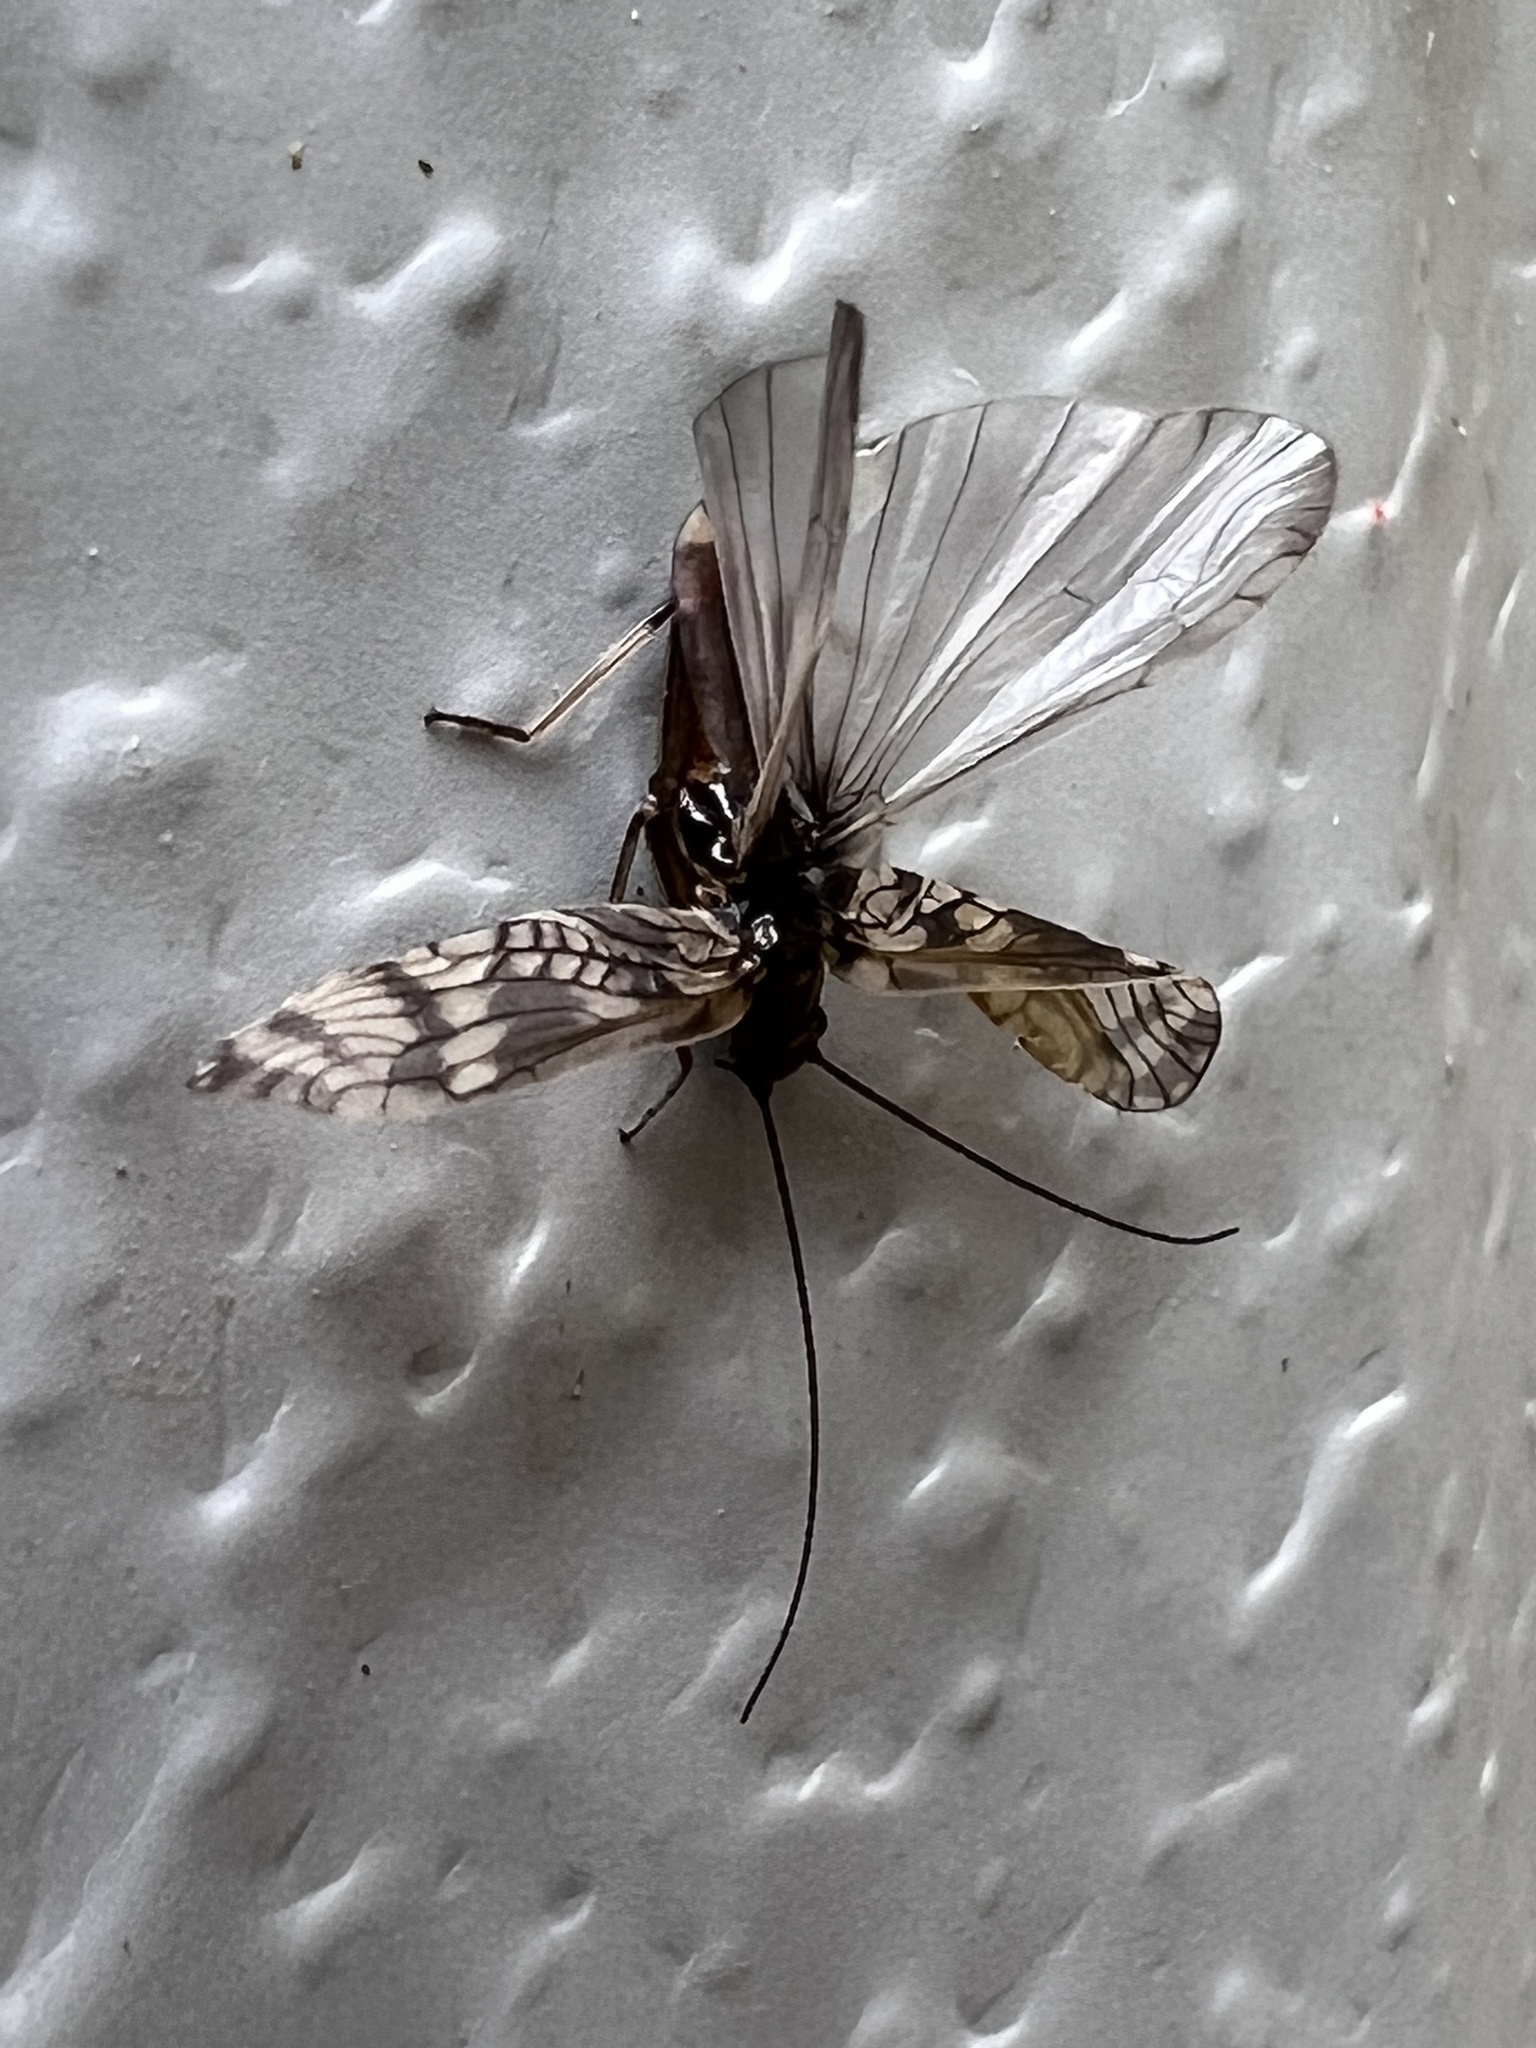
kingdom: Animalia
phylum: Arthropoda
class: Insecta
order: Plecoptera
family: Taeniopterygidae
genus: Doddsia
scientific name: Doddsia occidentalis
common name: Western willowfly
